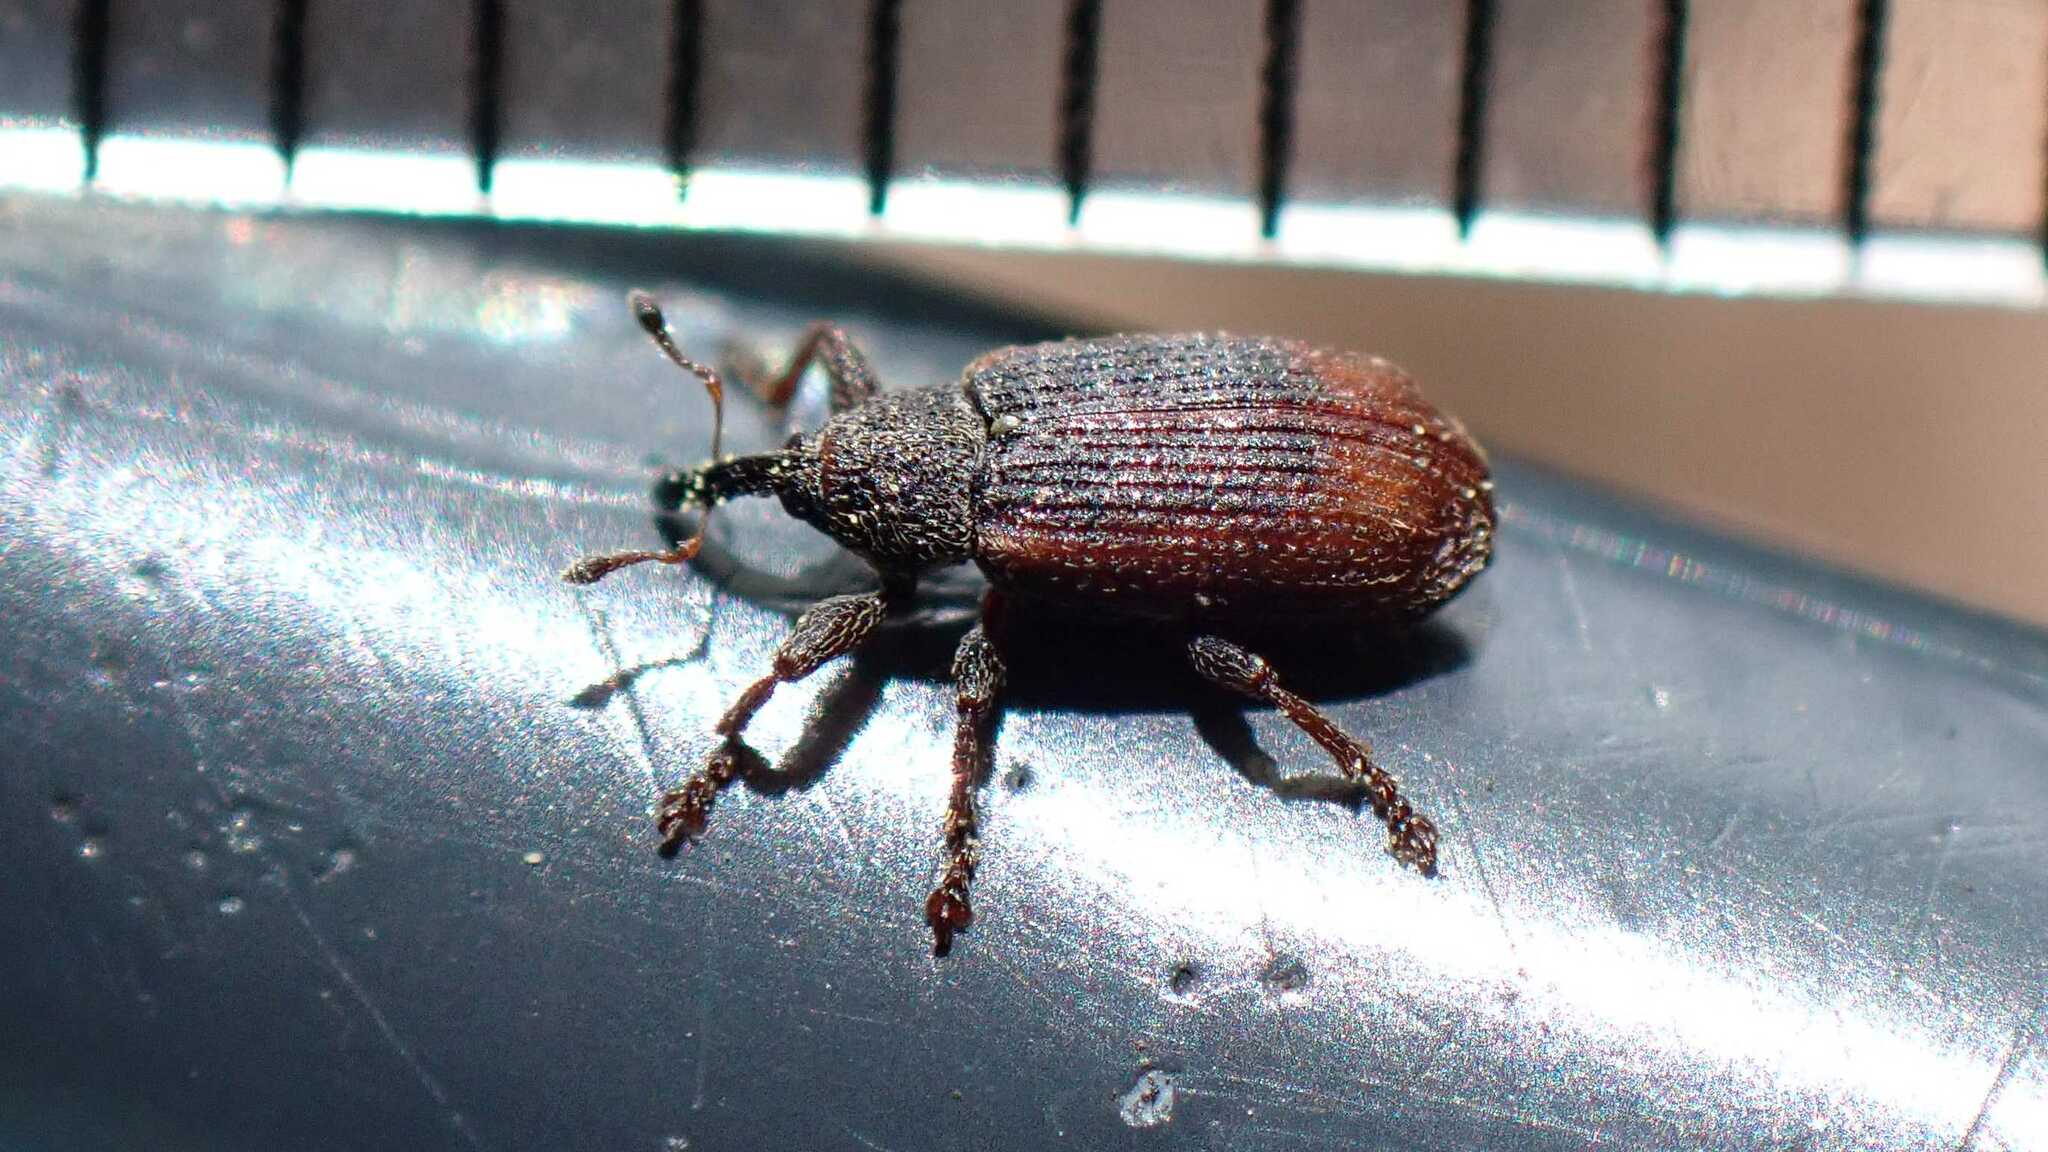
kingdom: Animalia
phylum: Arthropoda
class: Insecta
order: Coleoptera
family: Curculionidae
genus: Bradybatus
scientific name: Bradybatus kellneri
